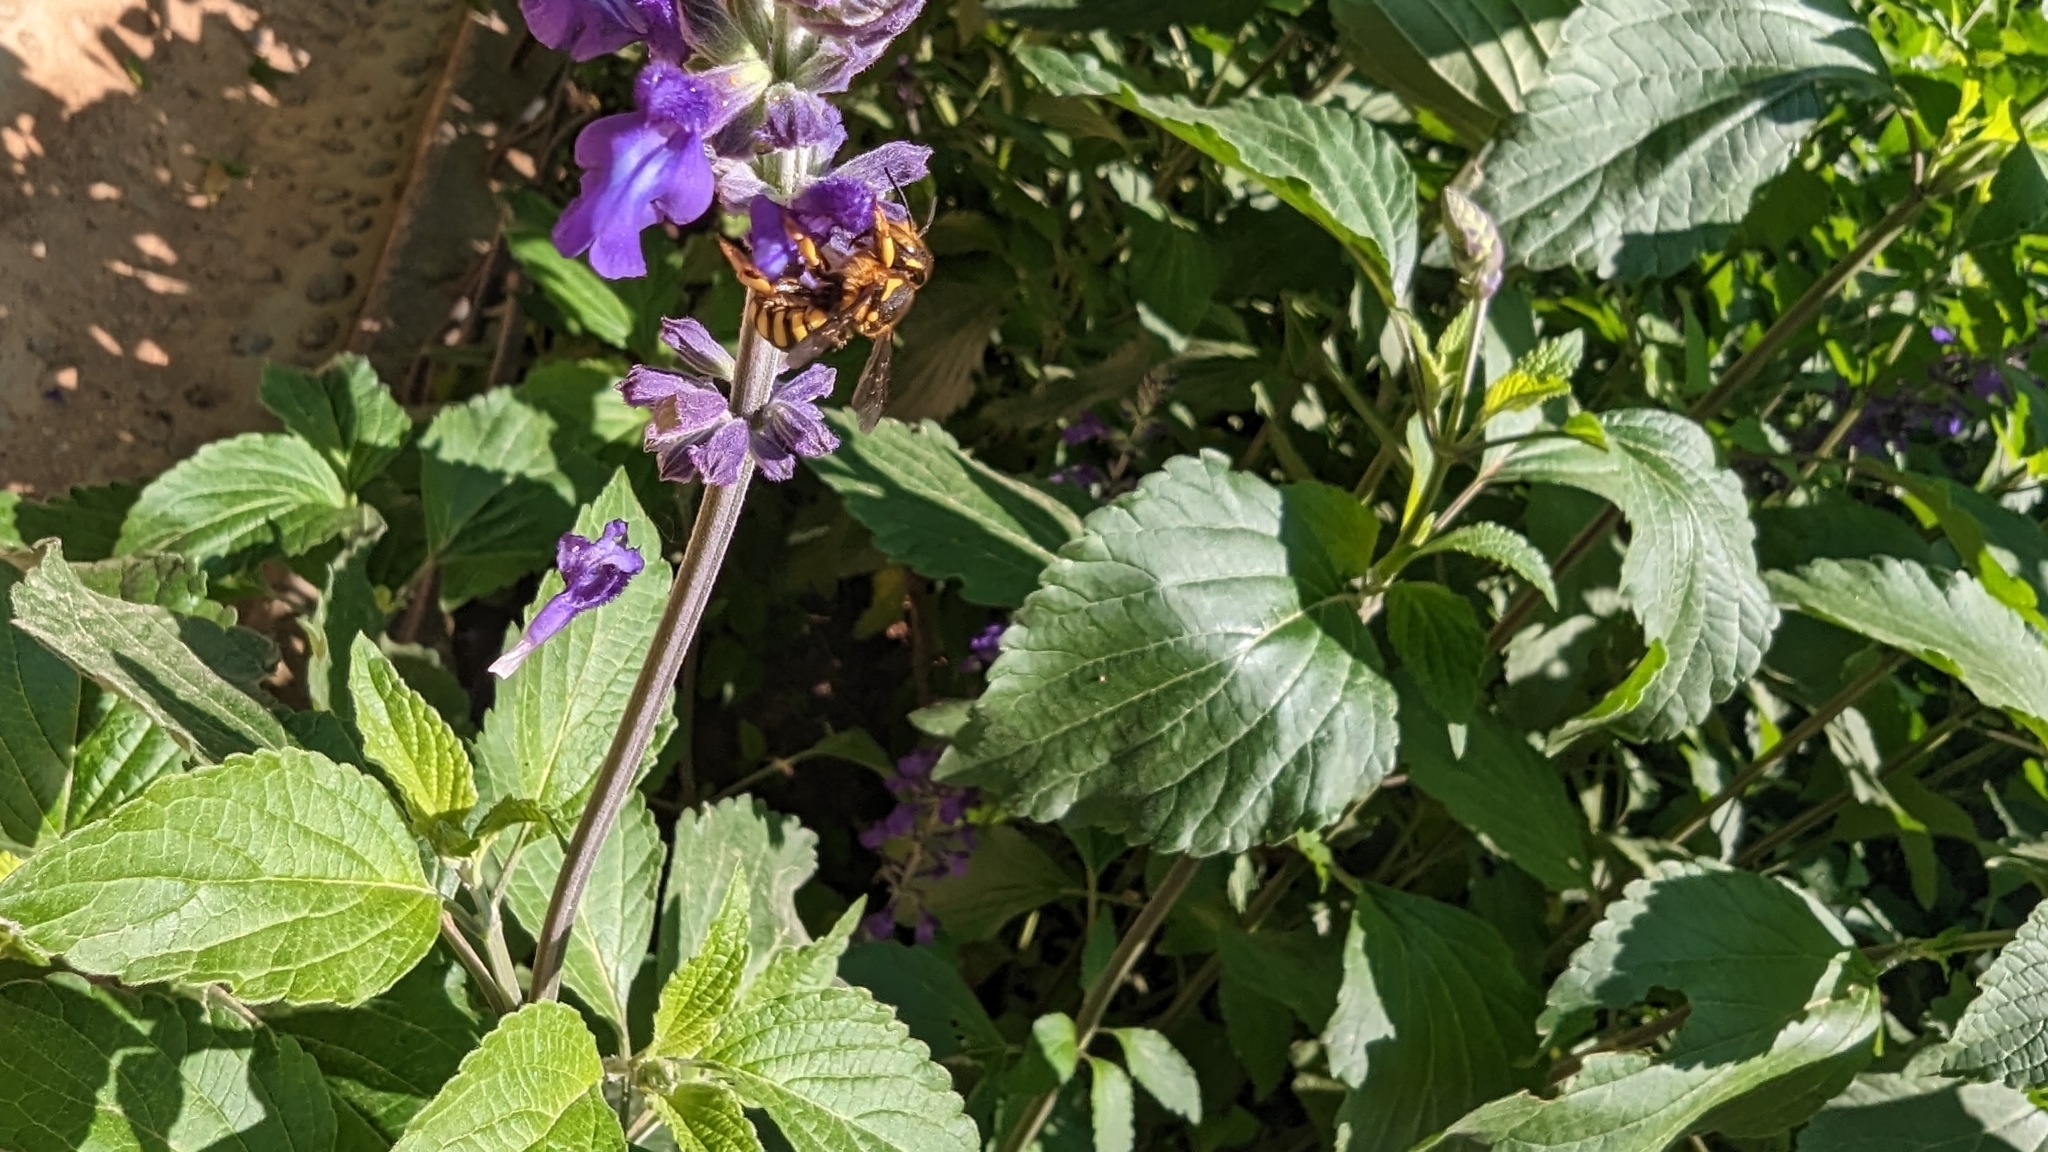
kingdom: Animalia
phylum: Arthropoda
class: Insecta
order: Hymenoptera
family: Megachilidae
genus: Anthidium
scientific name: Anthidium florentinum
